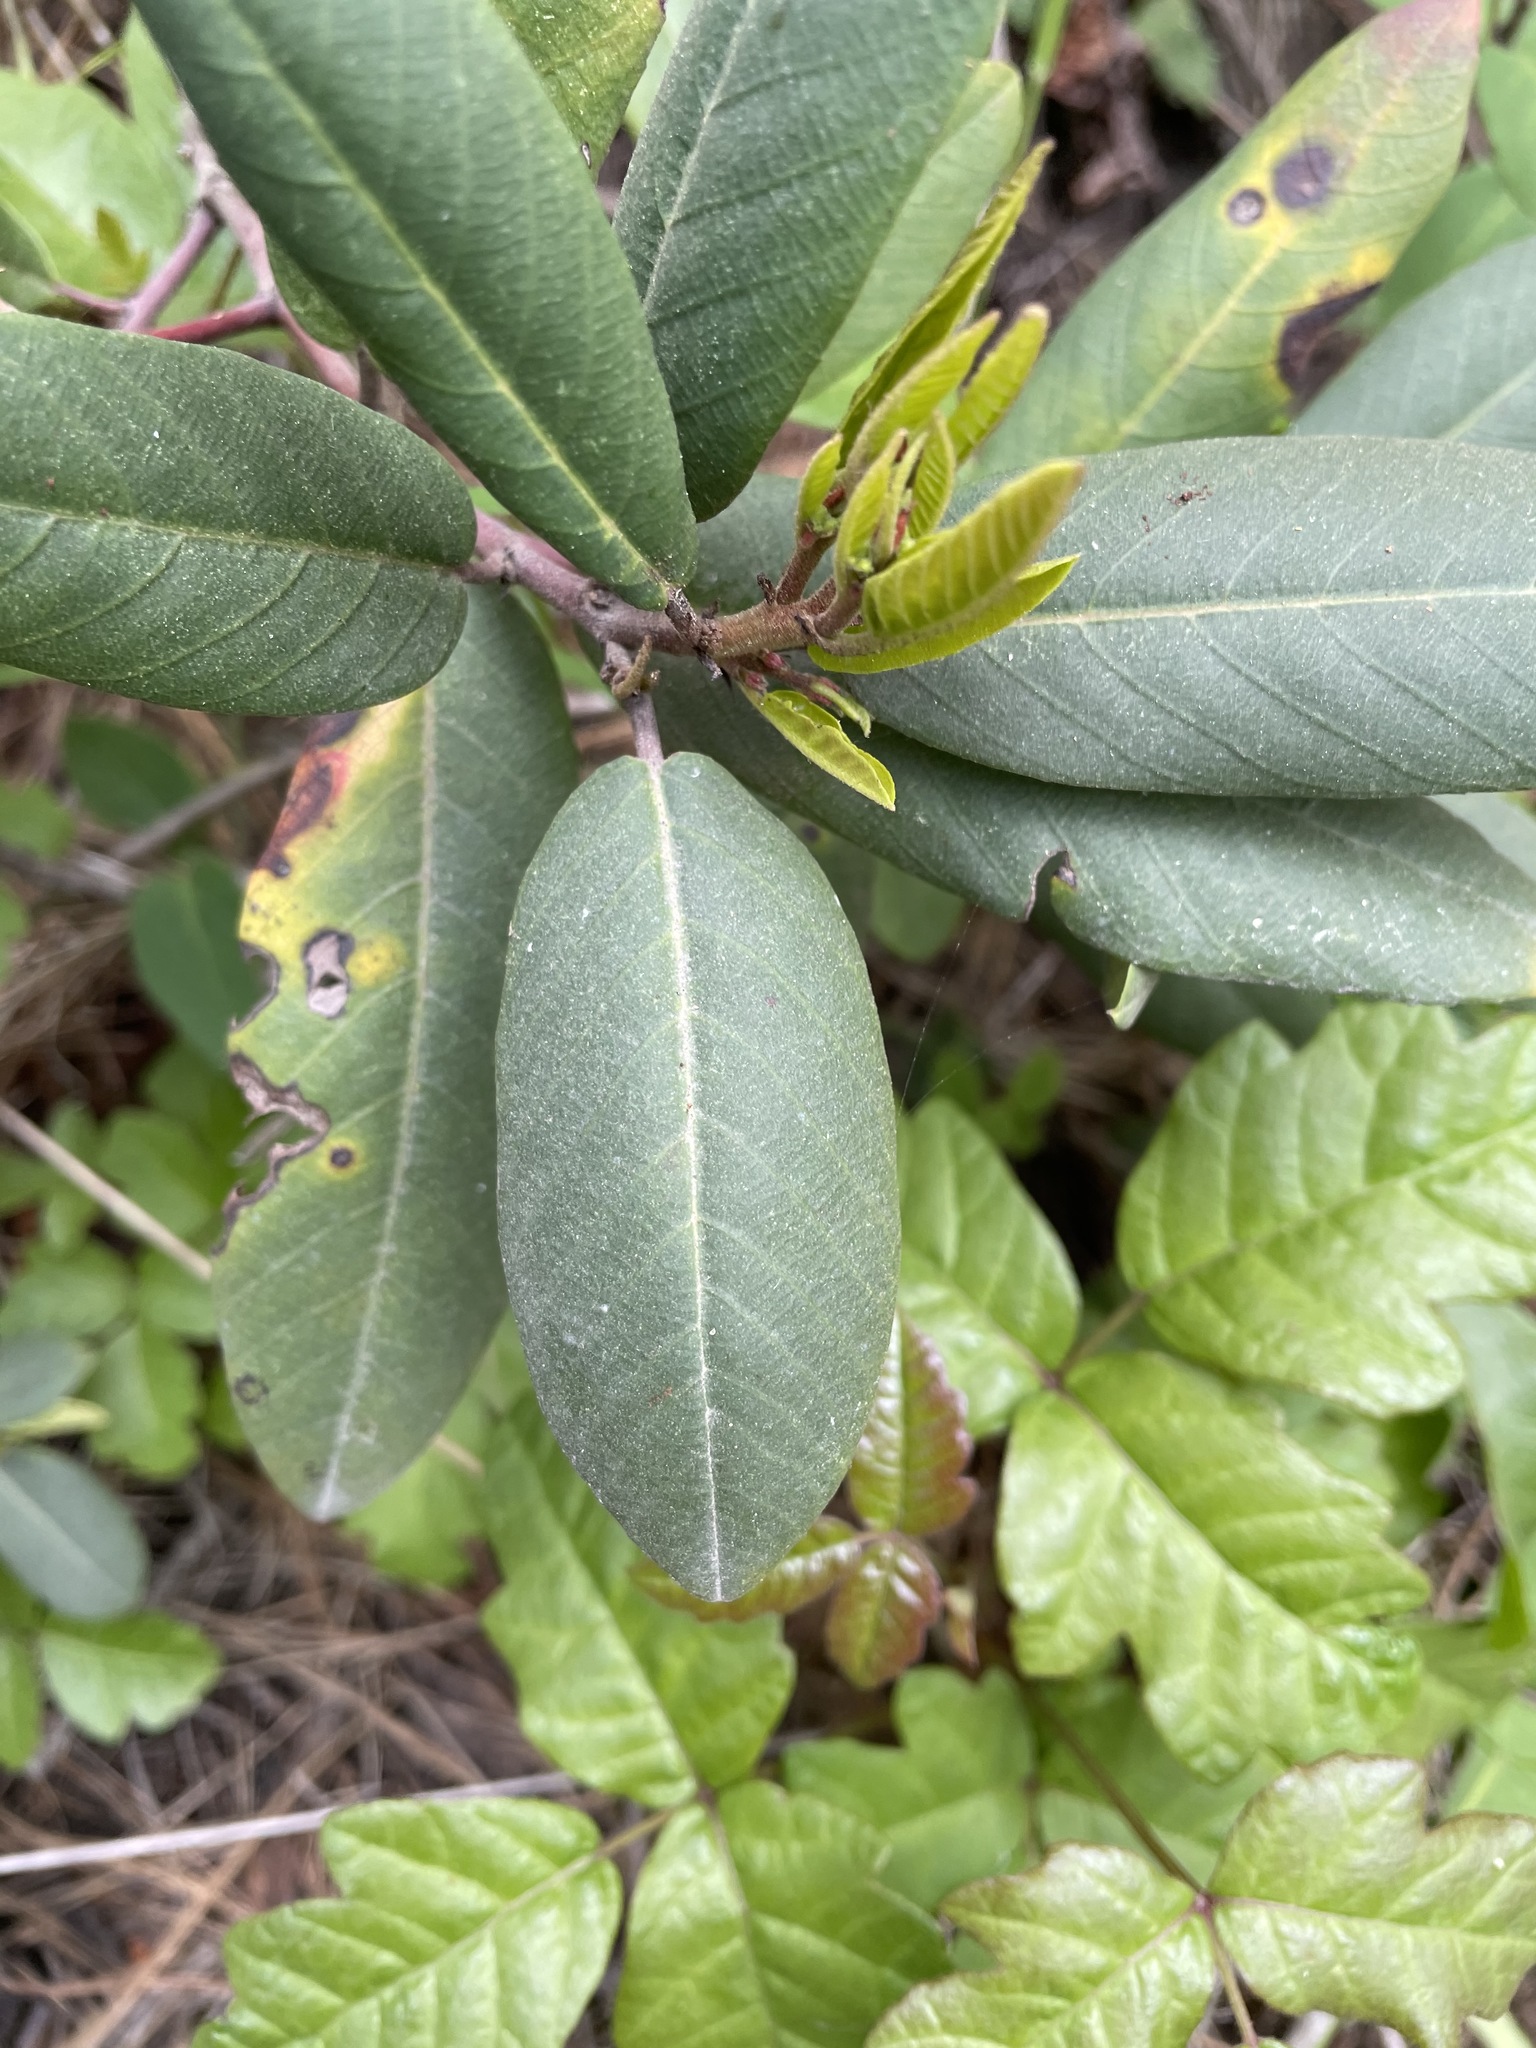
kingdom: Plantae
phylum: Tracheophyta
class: Magnoliopsida
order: Rosales
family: Rhamnaceae
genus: Frangula
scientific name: Frangula californica
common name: California buckthorn
